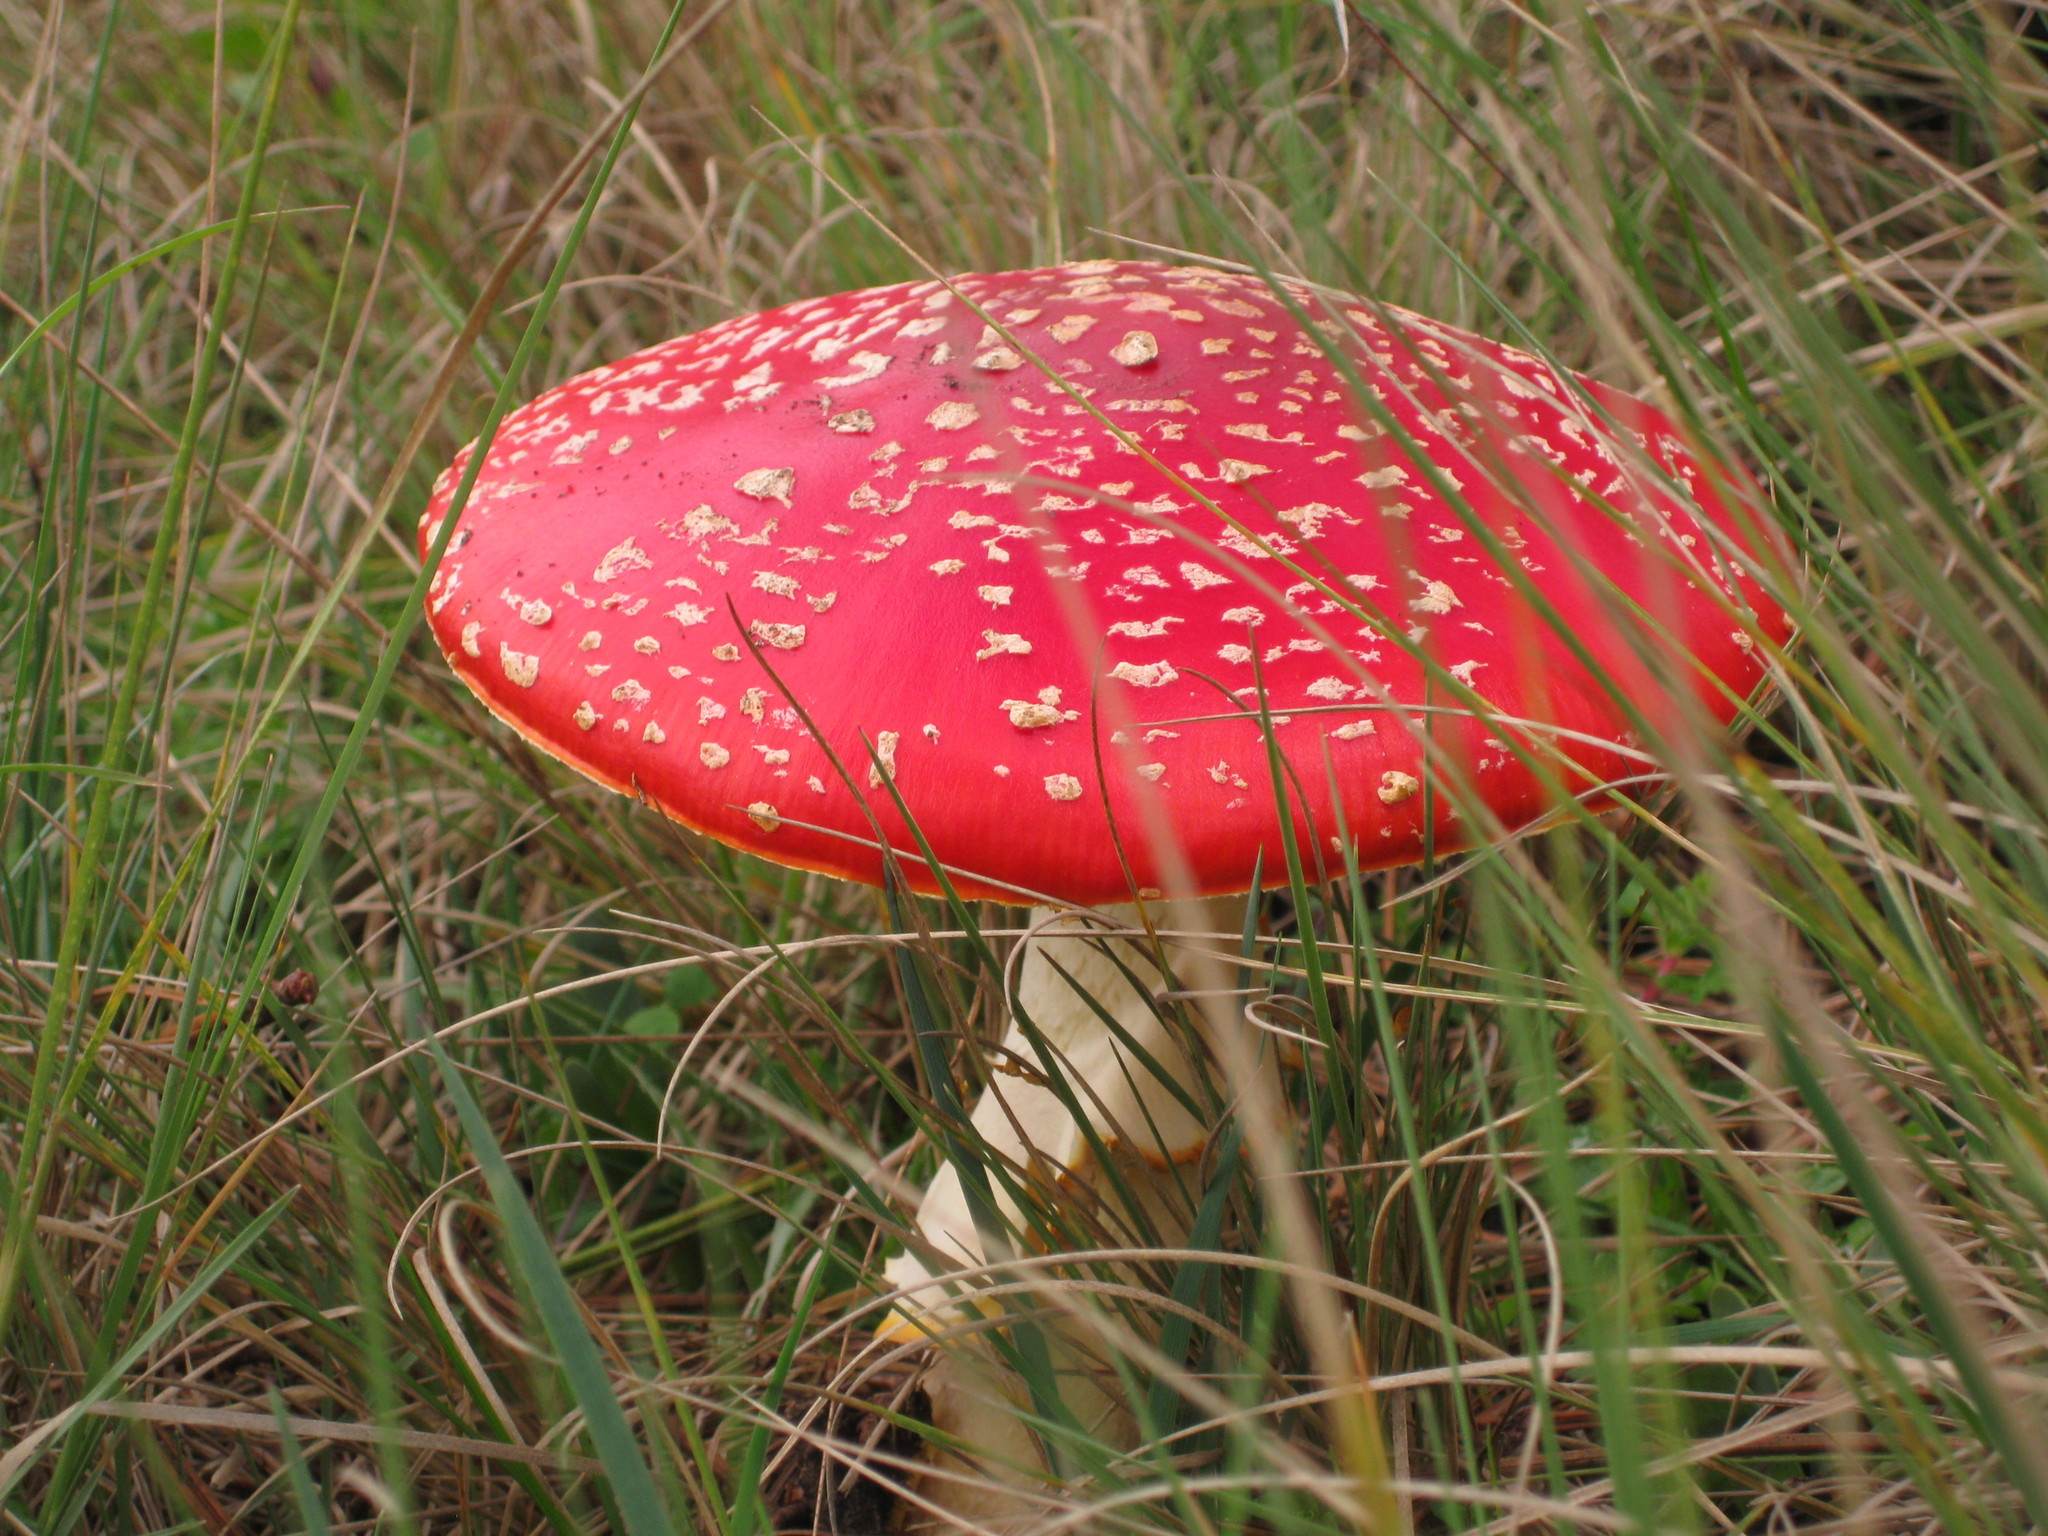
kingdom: Fungi
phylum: Basidiomycota
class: Agaricomycetes
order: Agaricales
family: Amanitaceae
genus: Amanita
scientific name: Amanita muscaria
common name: Fly agaric
